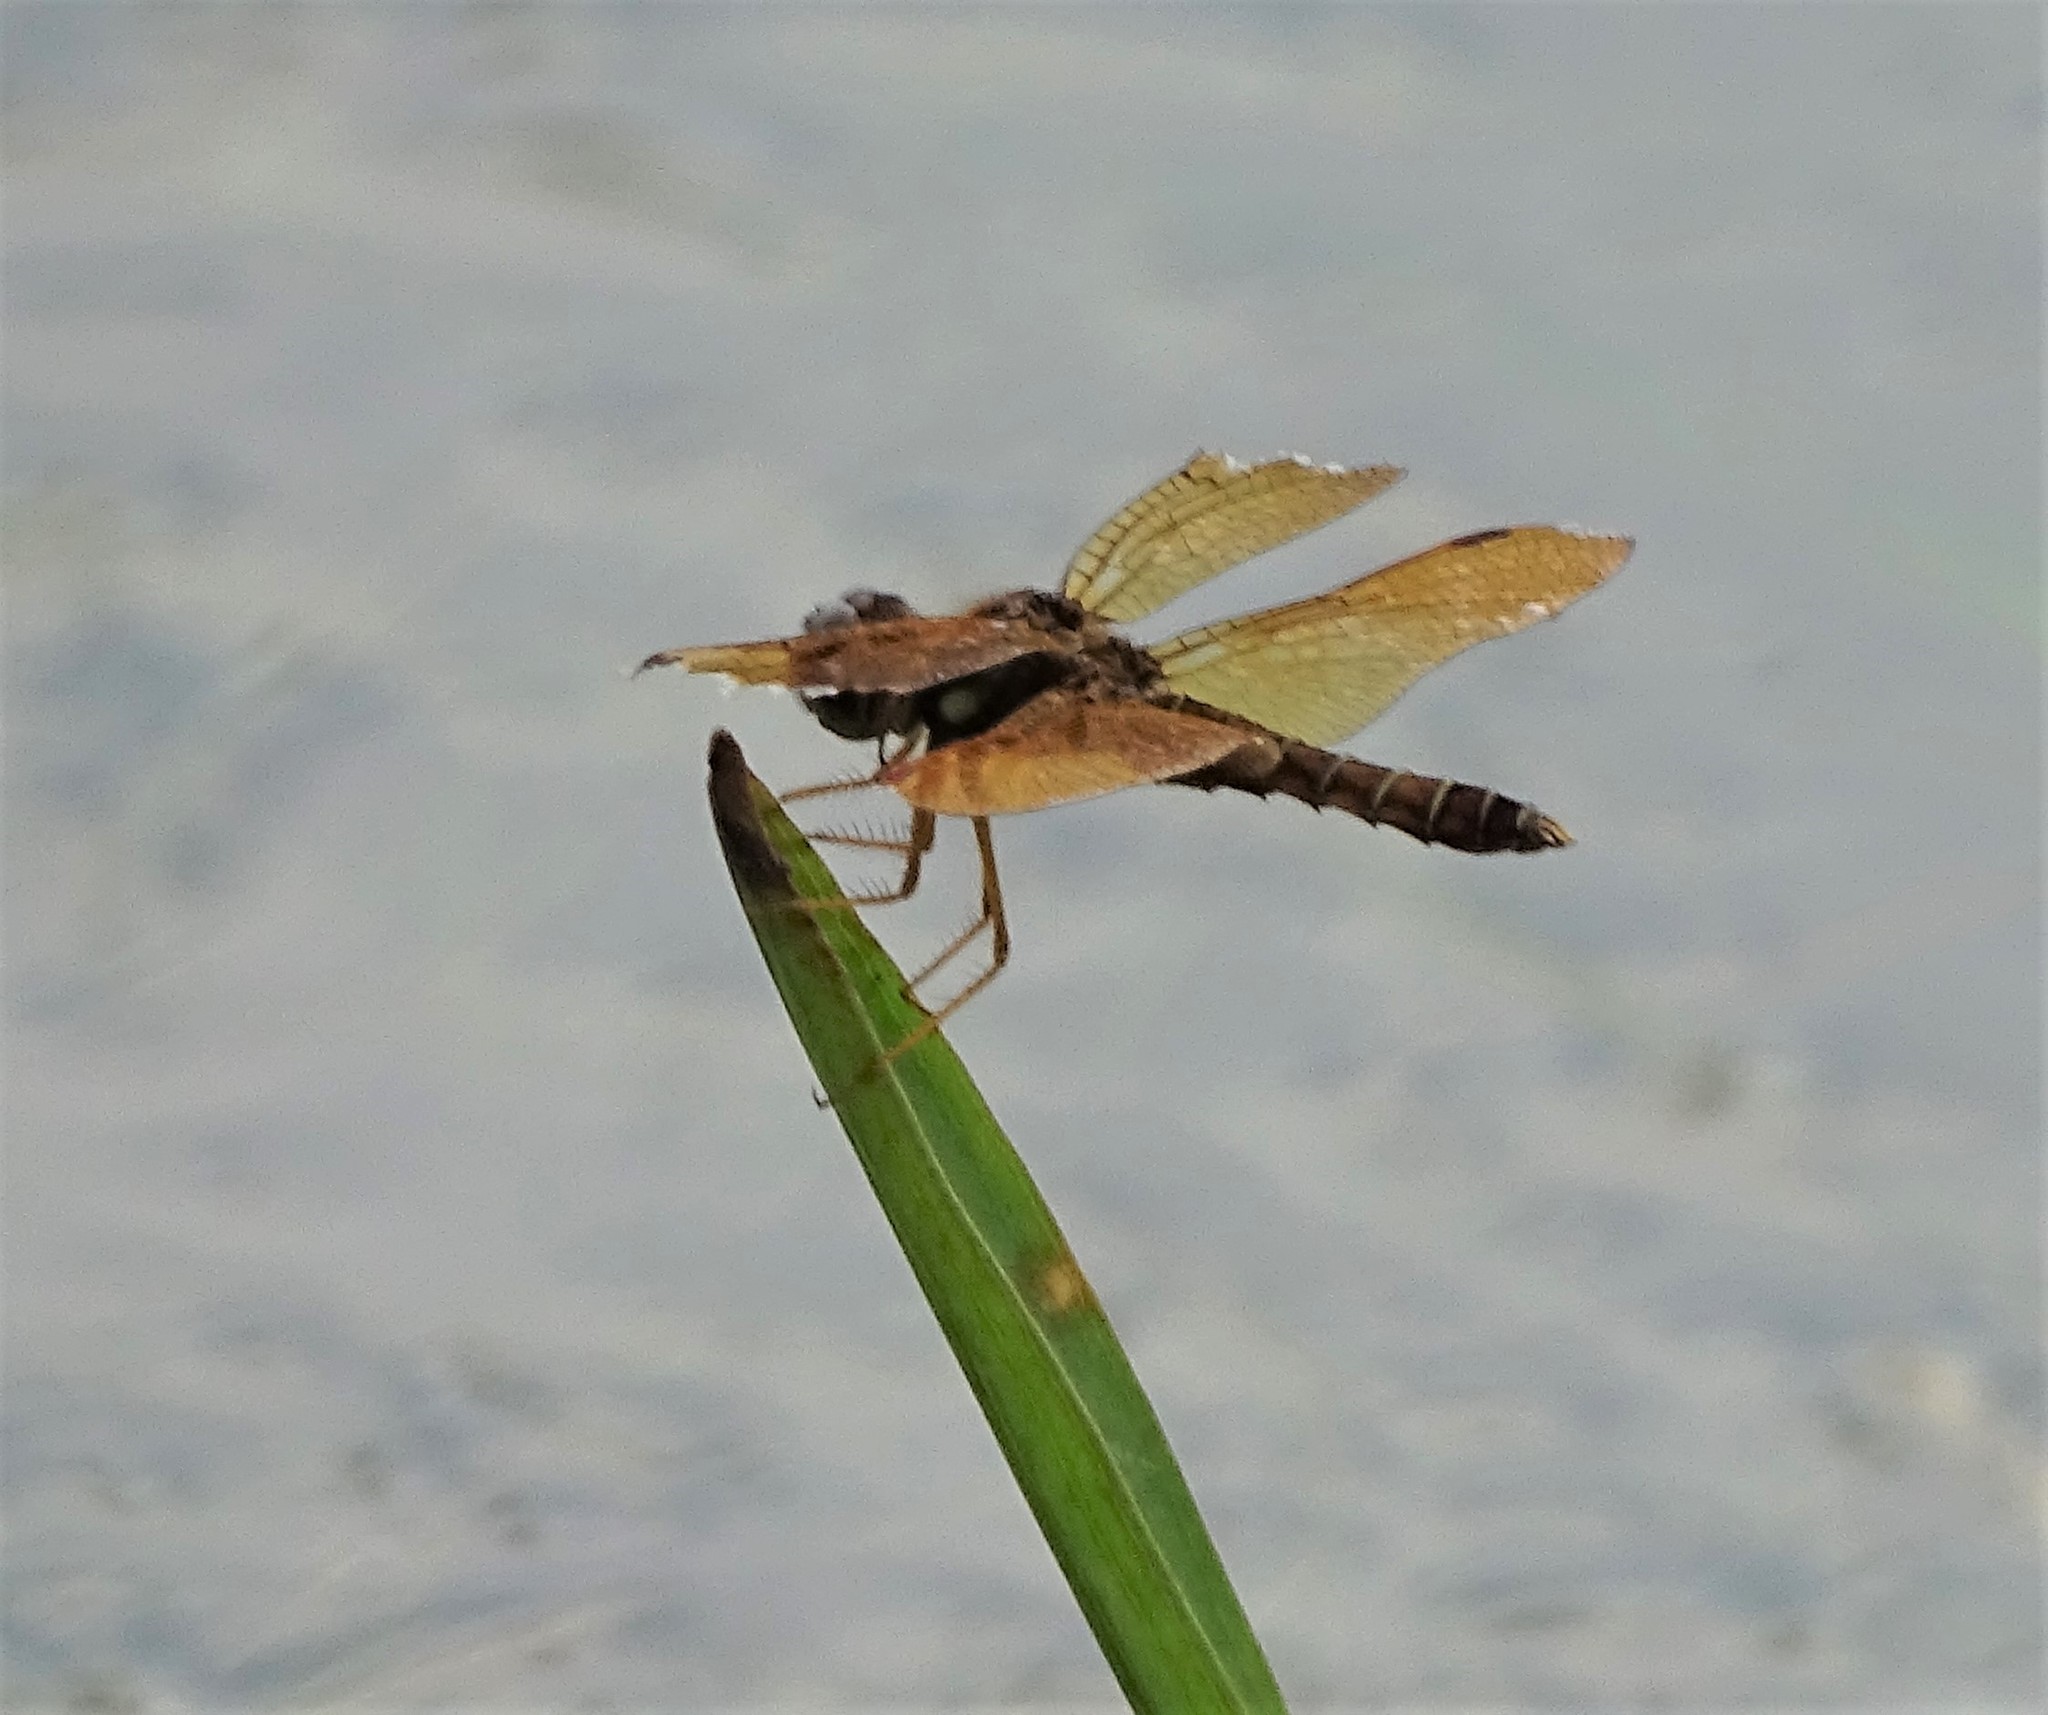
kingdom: Animalia
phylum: Arthropoda
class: Insecta
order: Odonata
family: Libellulidae
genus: Perithemis
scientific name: Perithemis tenera
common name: Eastern amberwing
